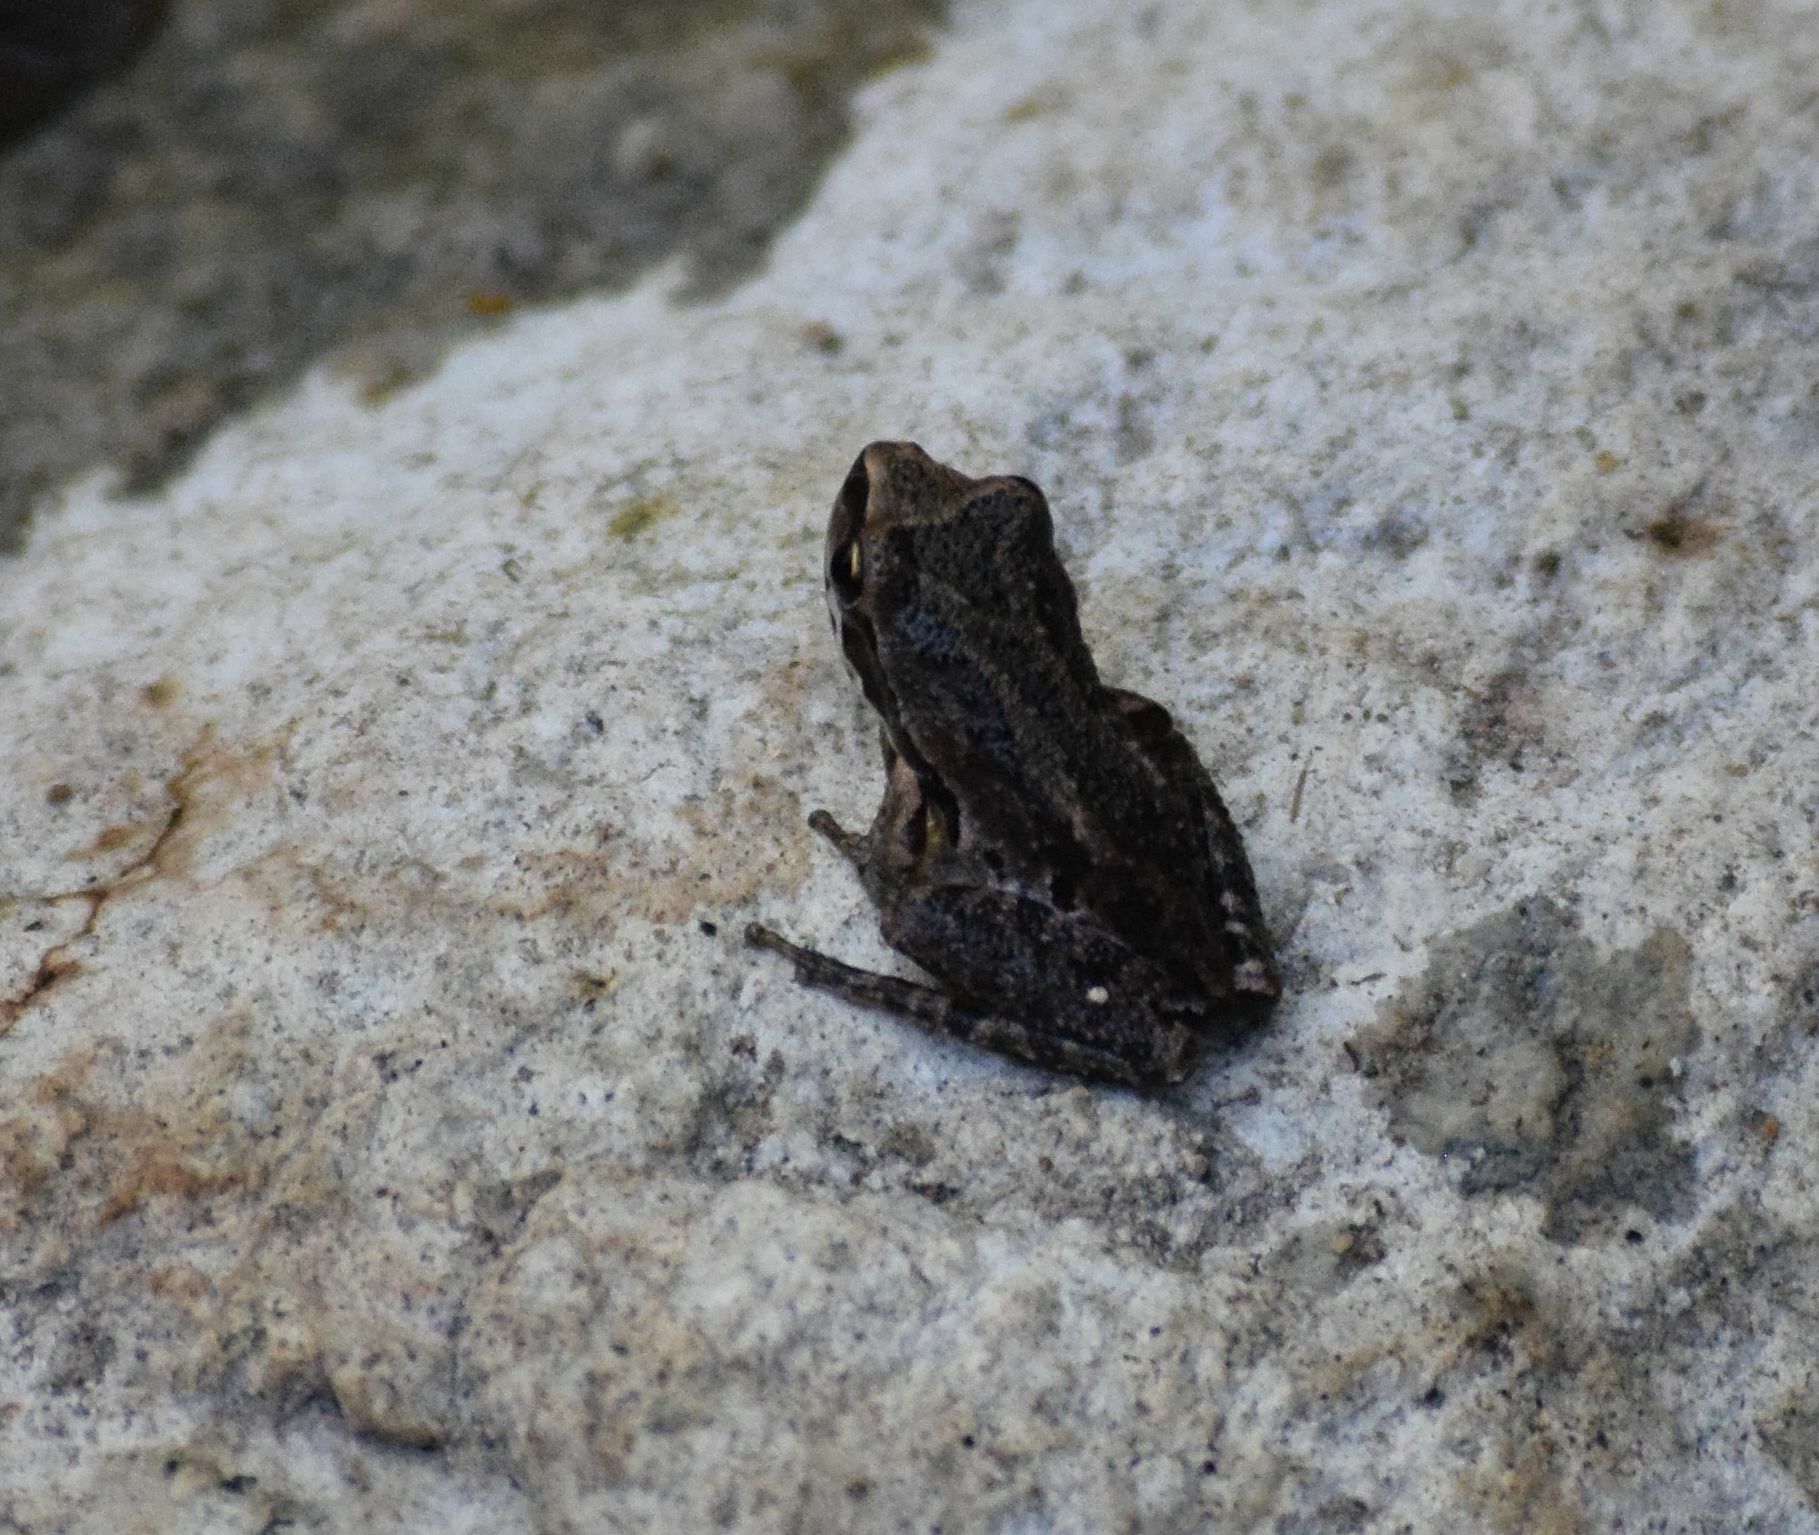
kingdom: Animalia
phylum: Chordata
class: Amphibia
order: Anura
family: Hylidae
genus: Pseudacris
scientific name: Pseudacris regilla
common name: Pacific chorus frog
